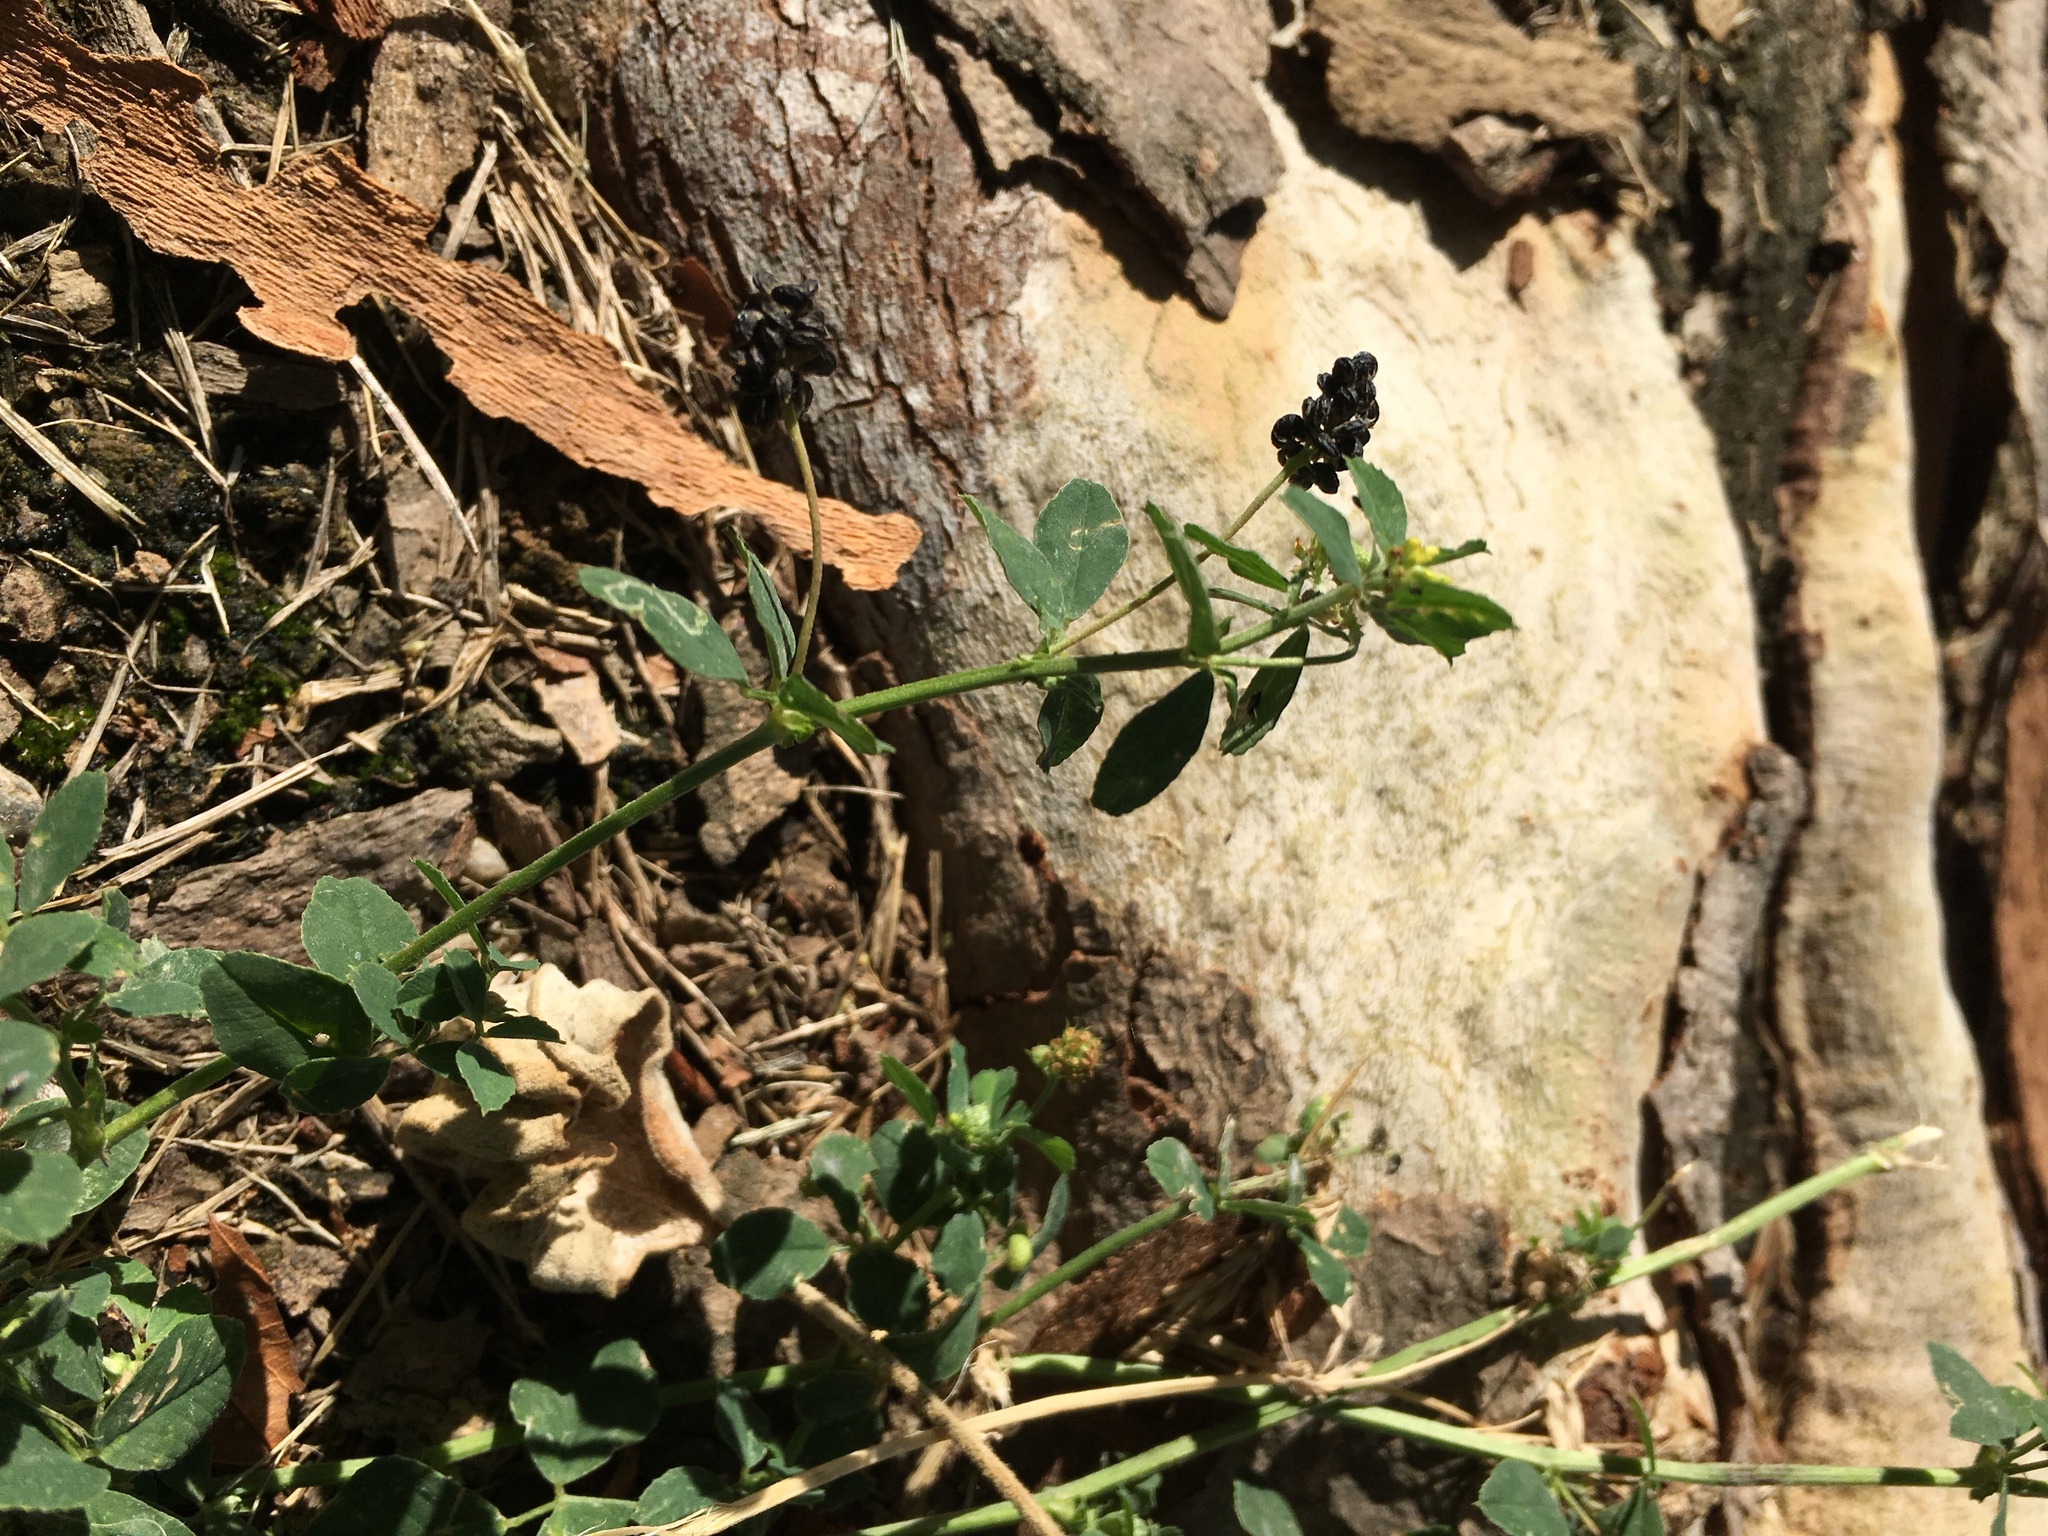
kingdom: Plantae
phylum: Tracheophyta
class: Magnoliopsida
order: Fabales
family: Fabaceae
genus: Medicago
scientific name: Medicago lupulina
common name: Black medick
